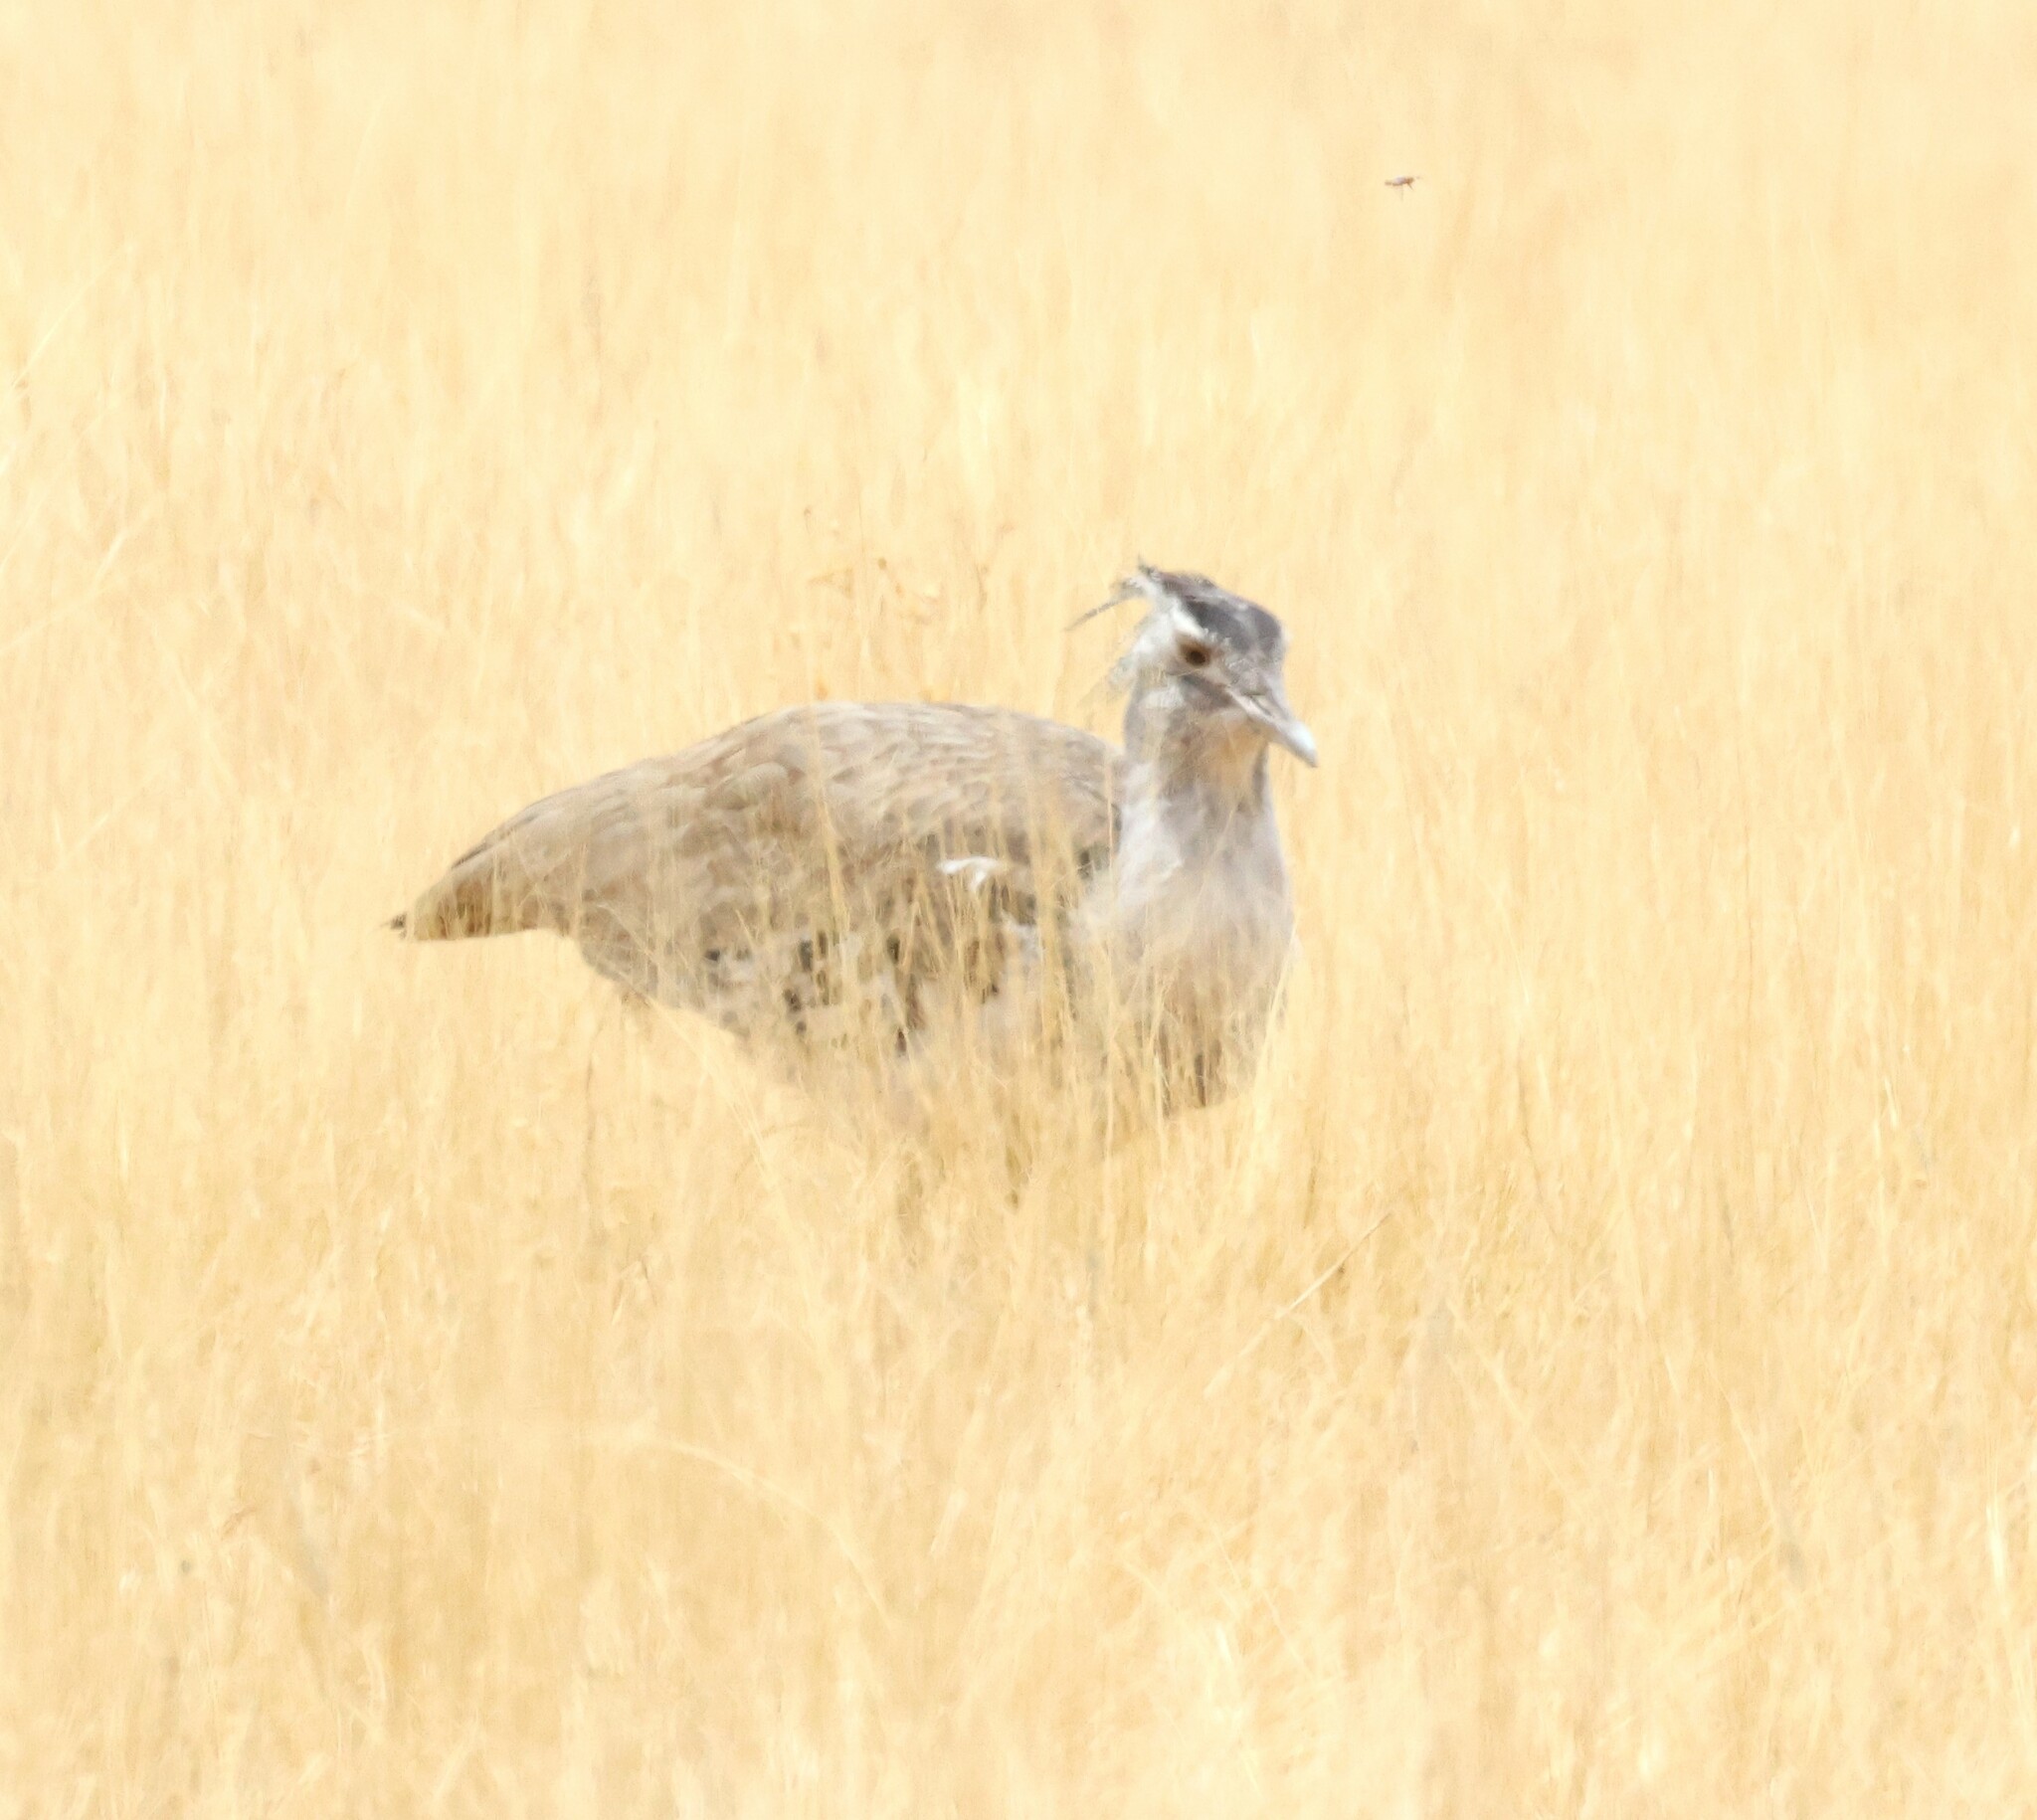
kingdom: Animalia
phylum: Chordata
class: Aves
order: Otidiformes
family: Otididae
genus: Ardeotis
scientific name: Ardeotis kori
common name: Kori bustard
